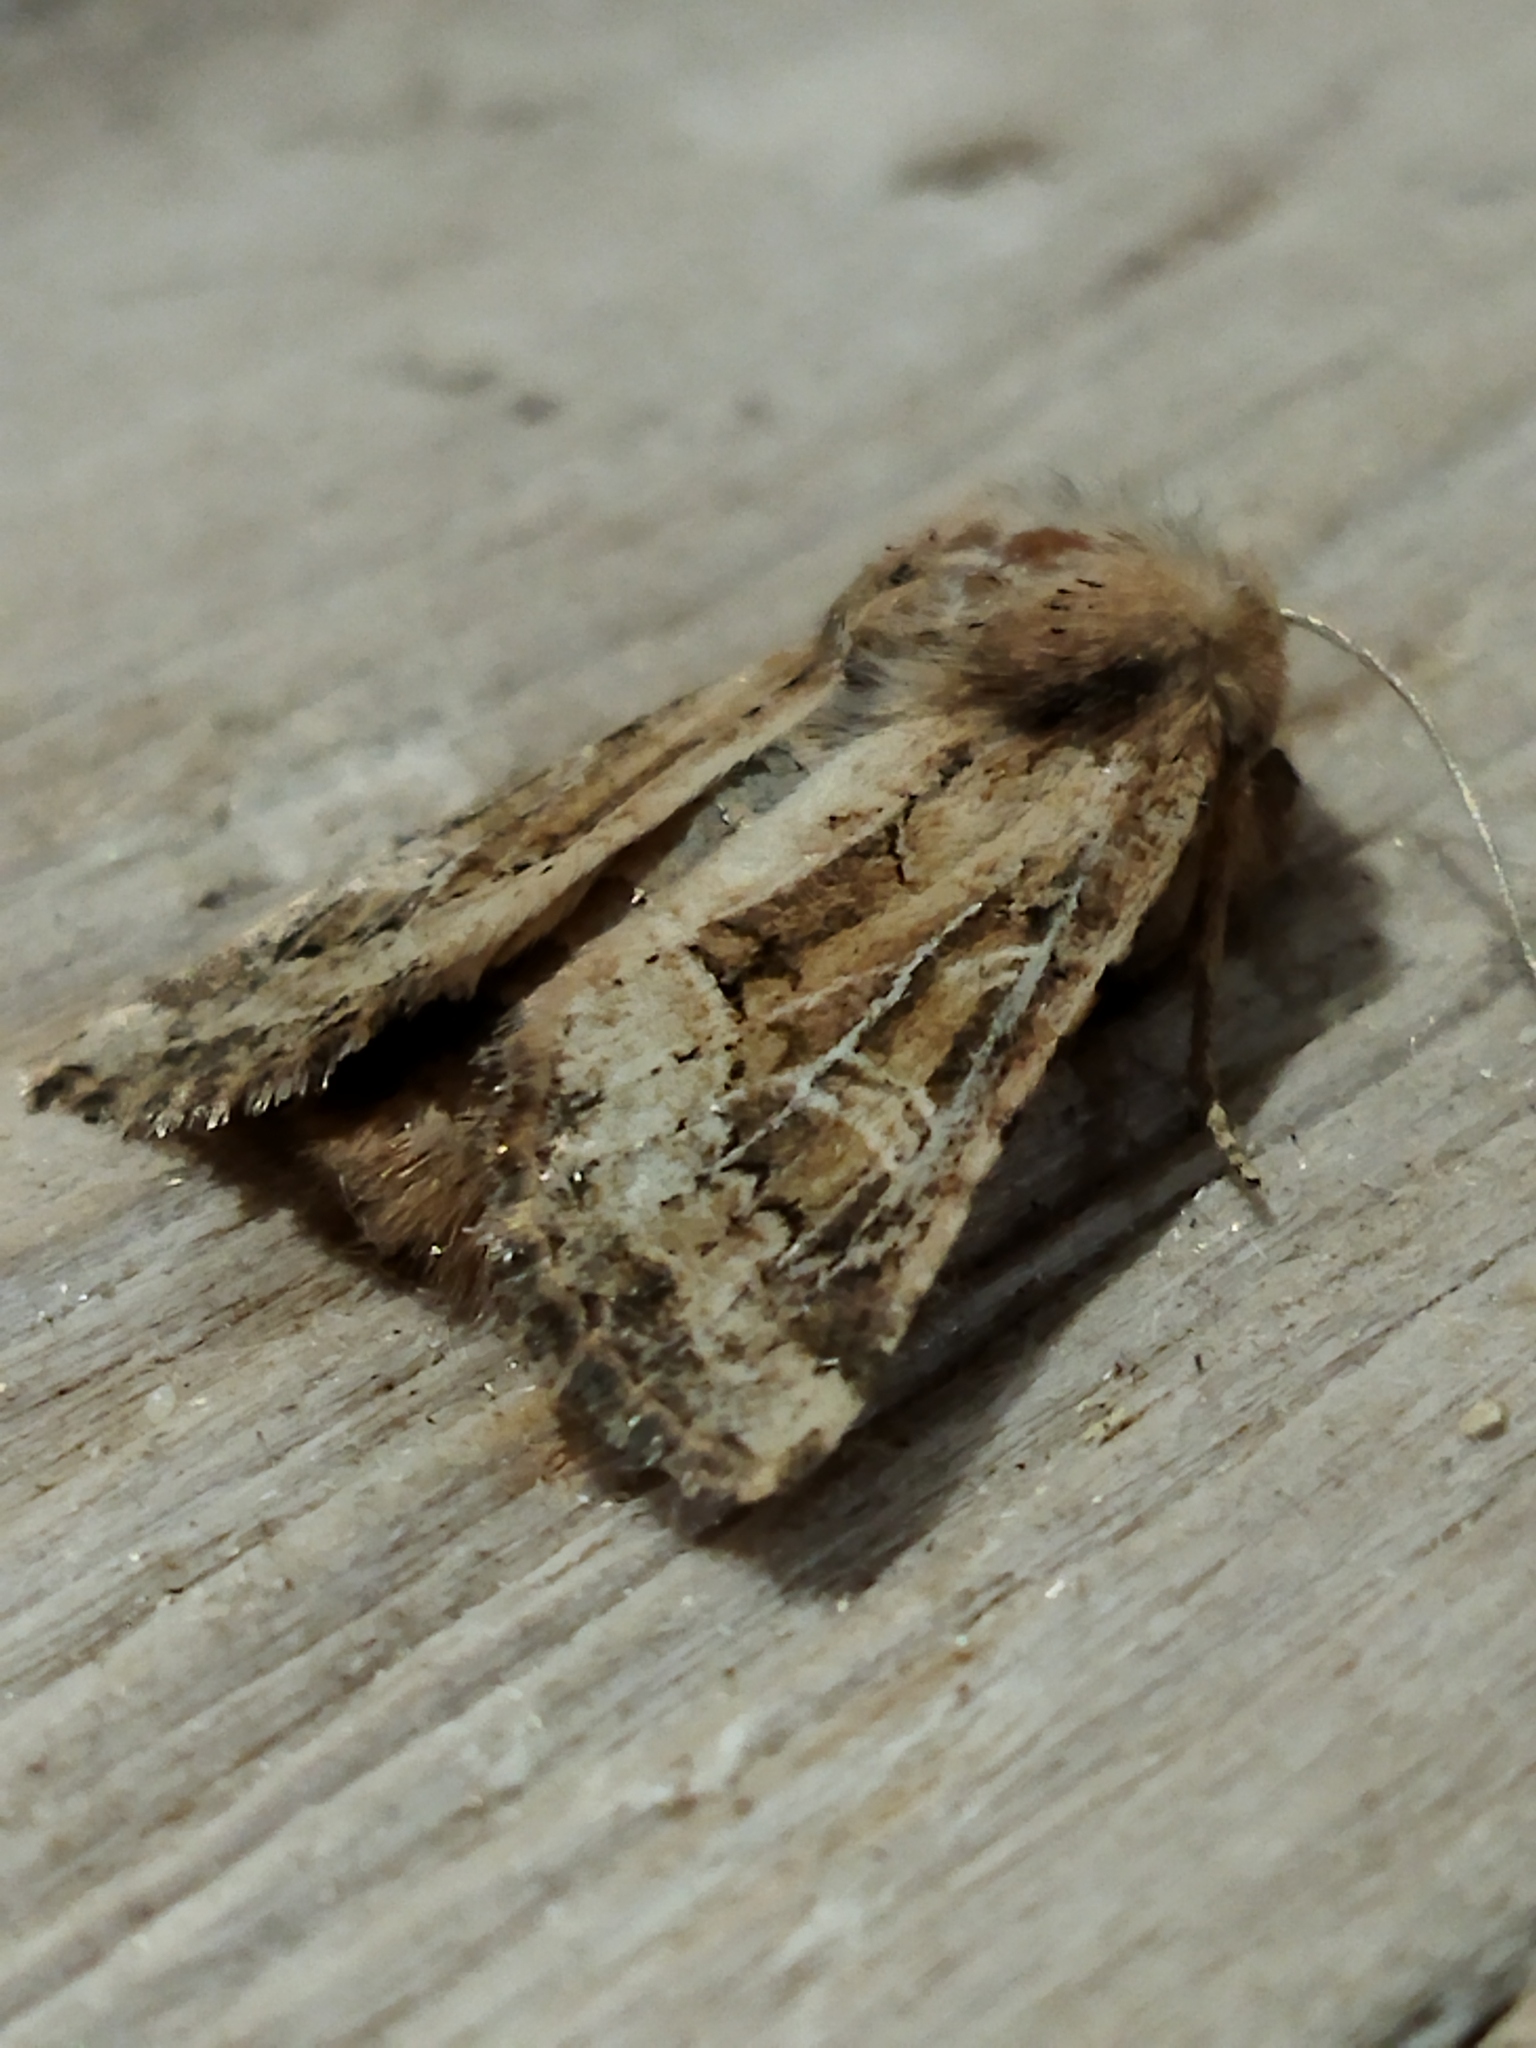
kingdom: Animalia
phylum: Arthropoda
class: Insecta
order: Lepidoptera
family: Noctuidae
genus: Luperina
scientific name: Luperina dumerilii
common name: Dumeril's rustic
